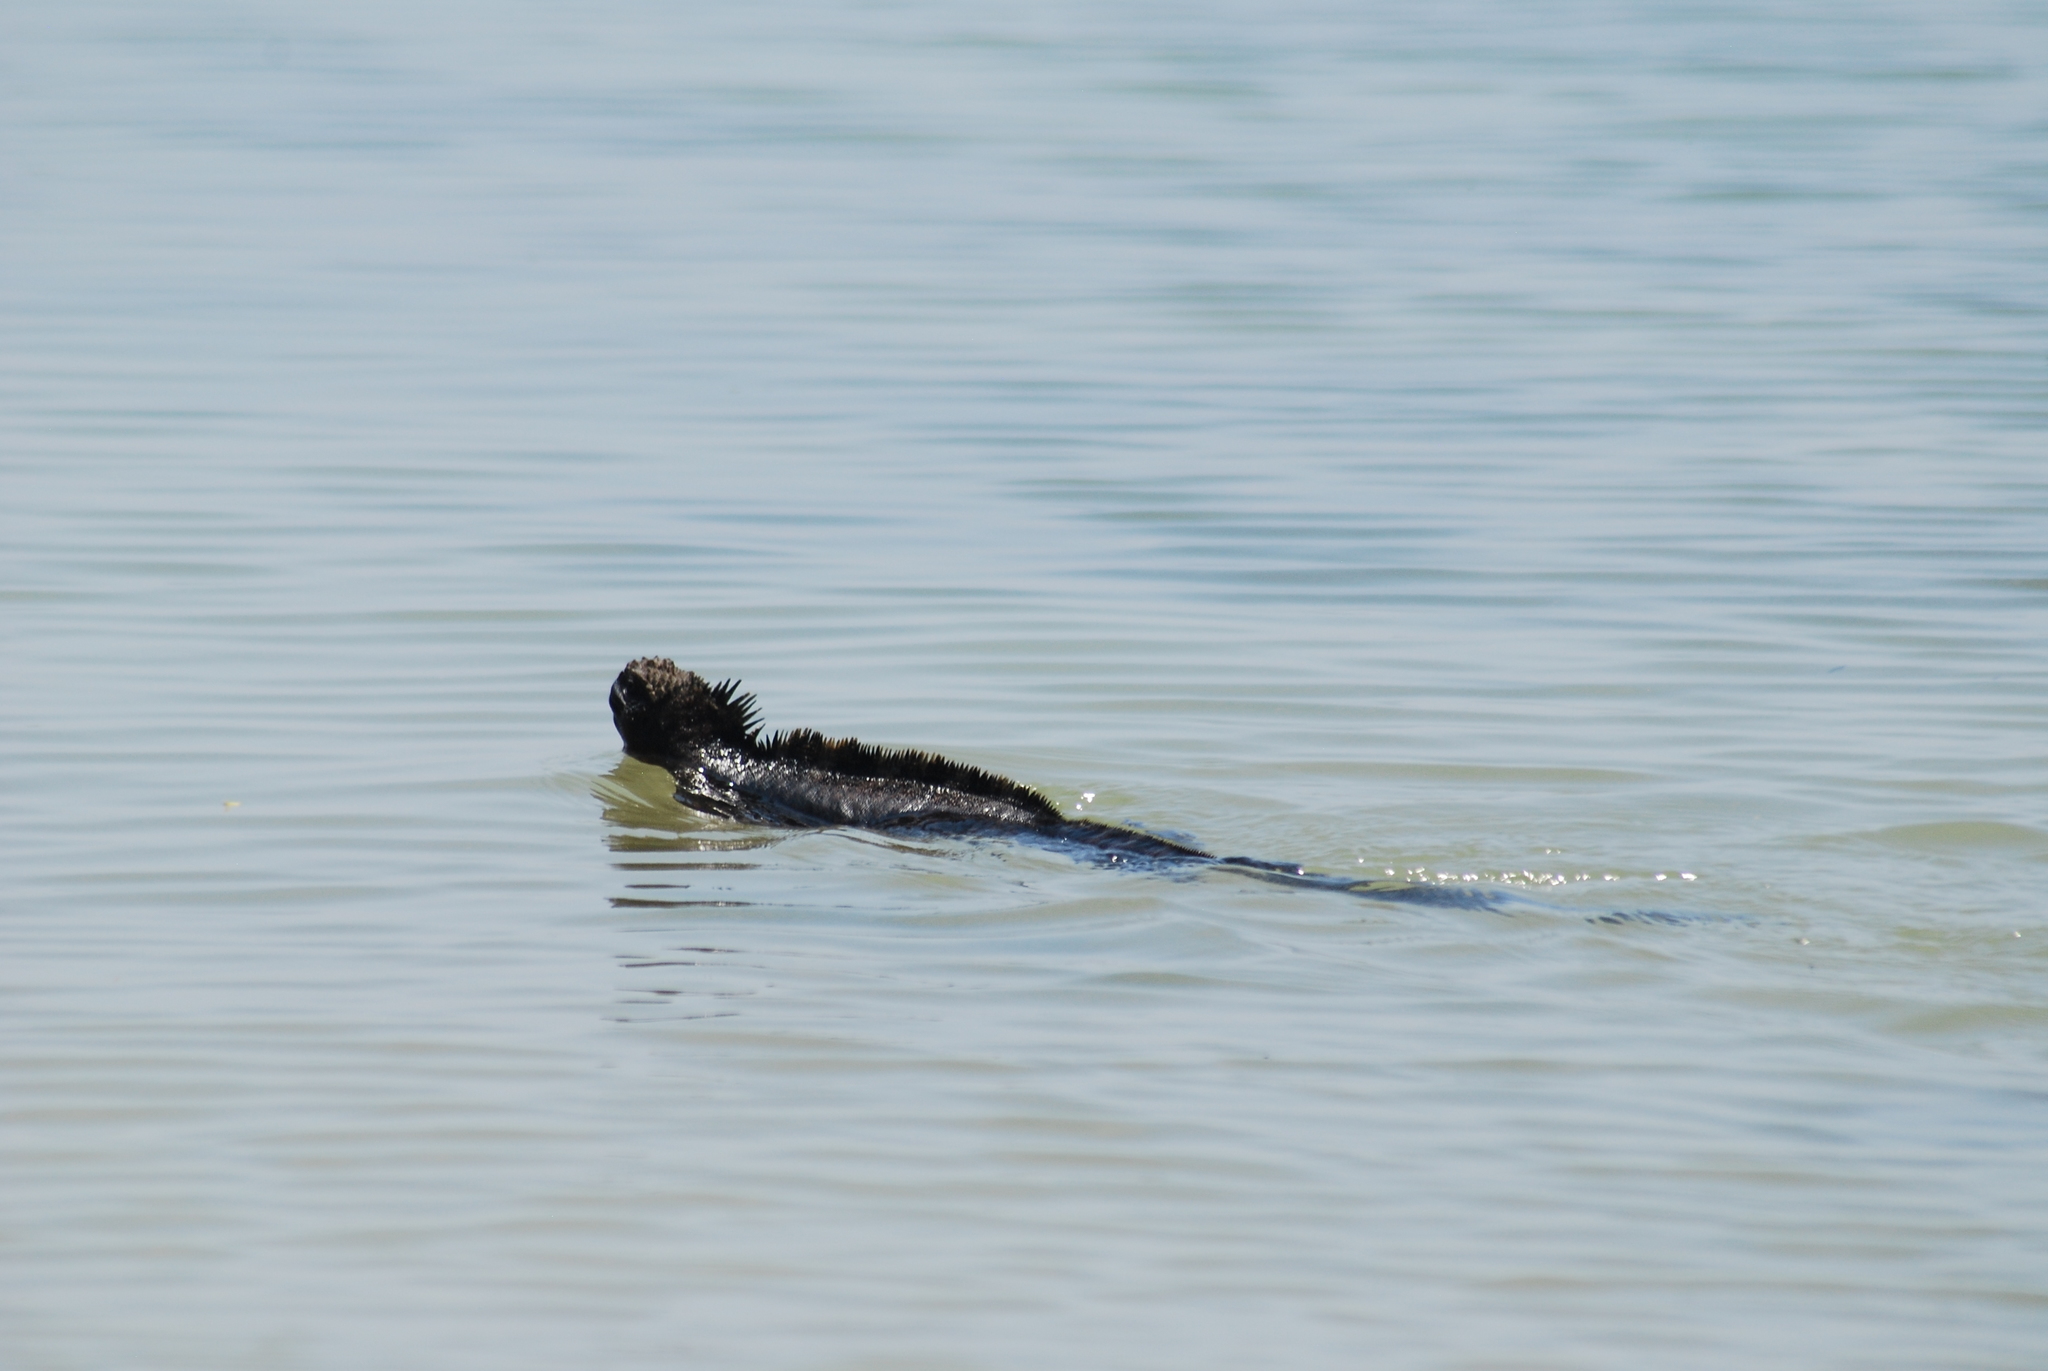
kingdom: Animalia
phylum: Chordata
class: Squamata
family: Iguanidae
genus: Amblyrhynchus
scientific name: Amblyrhynchus cristatus
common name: Marine iguana
